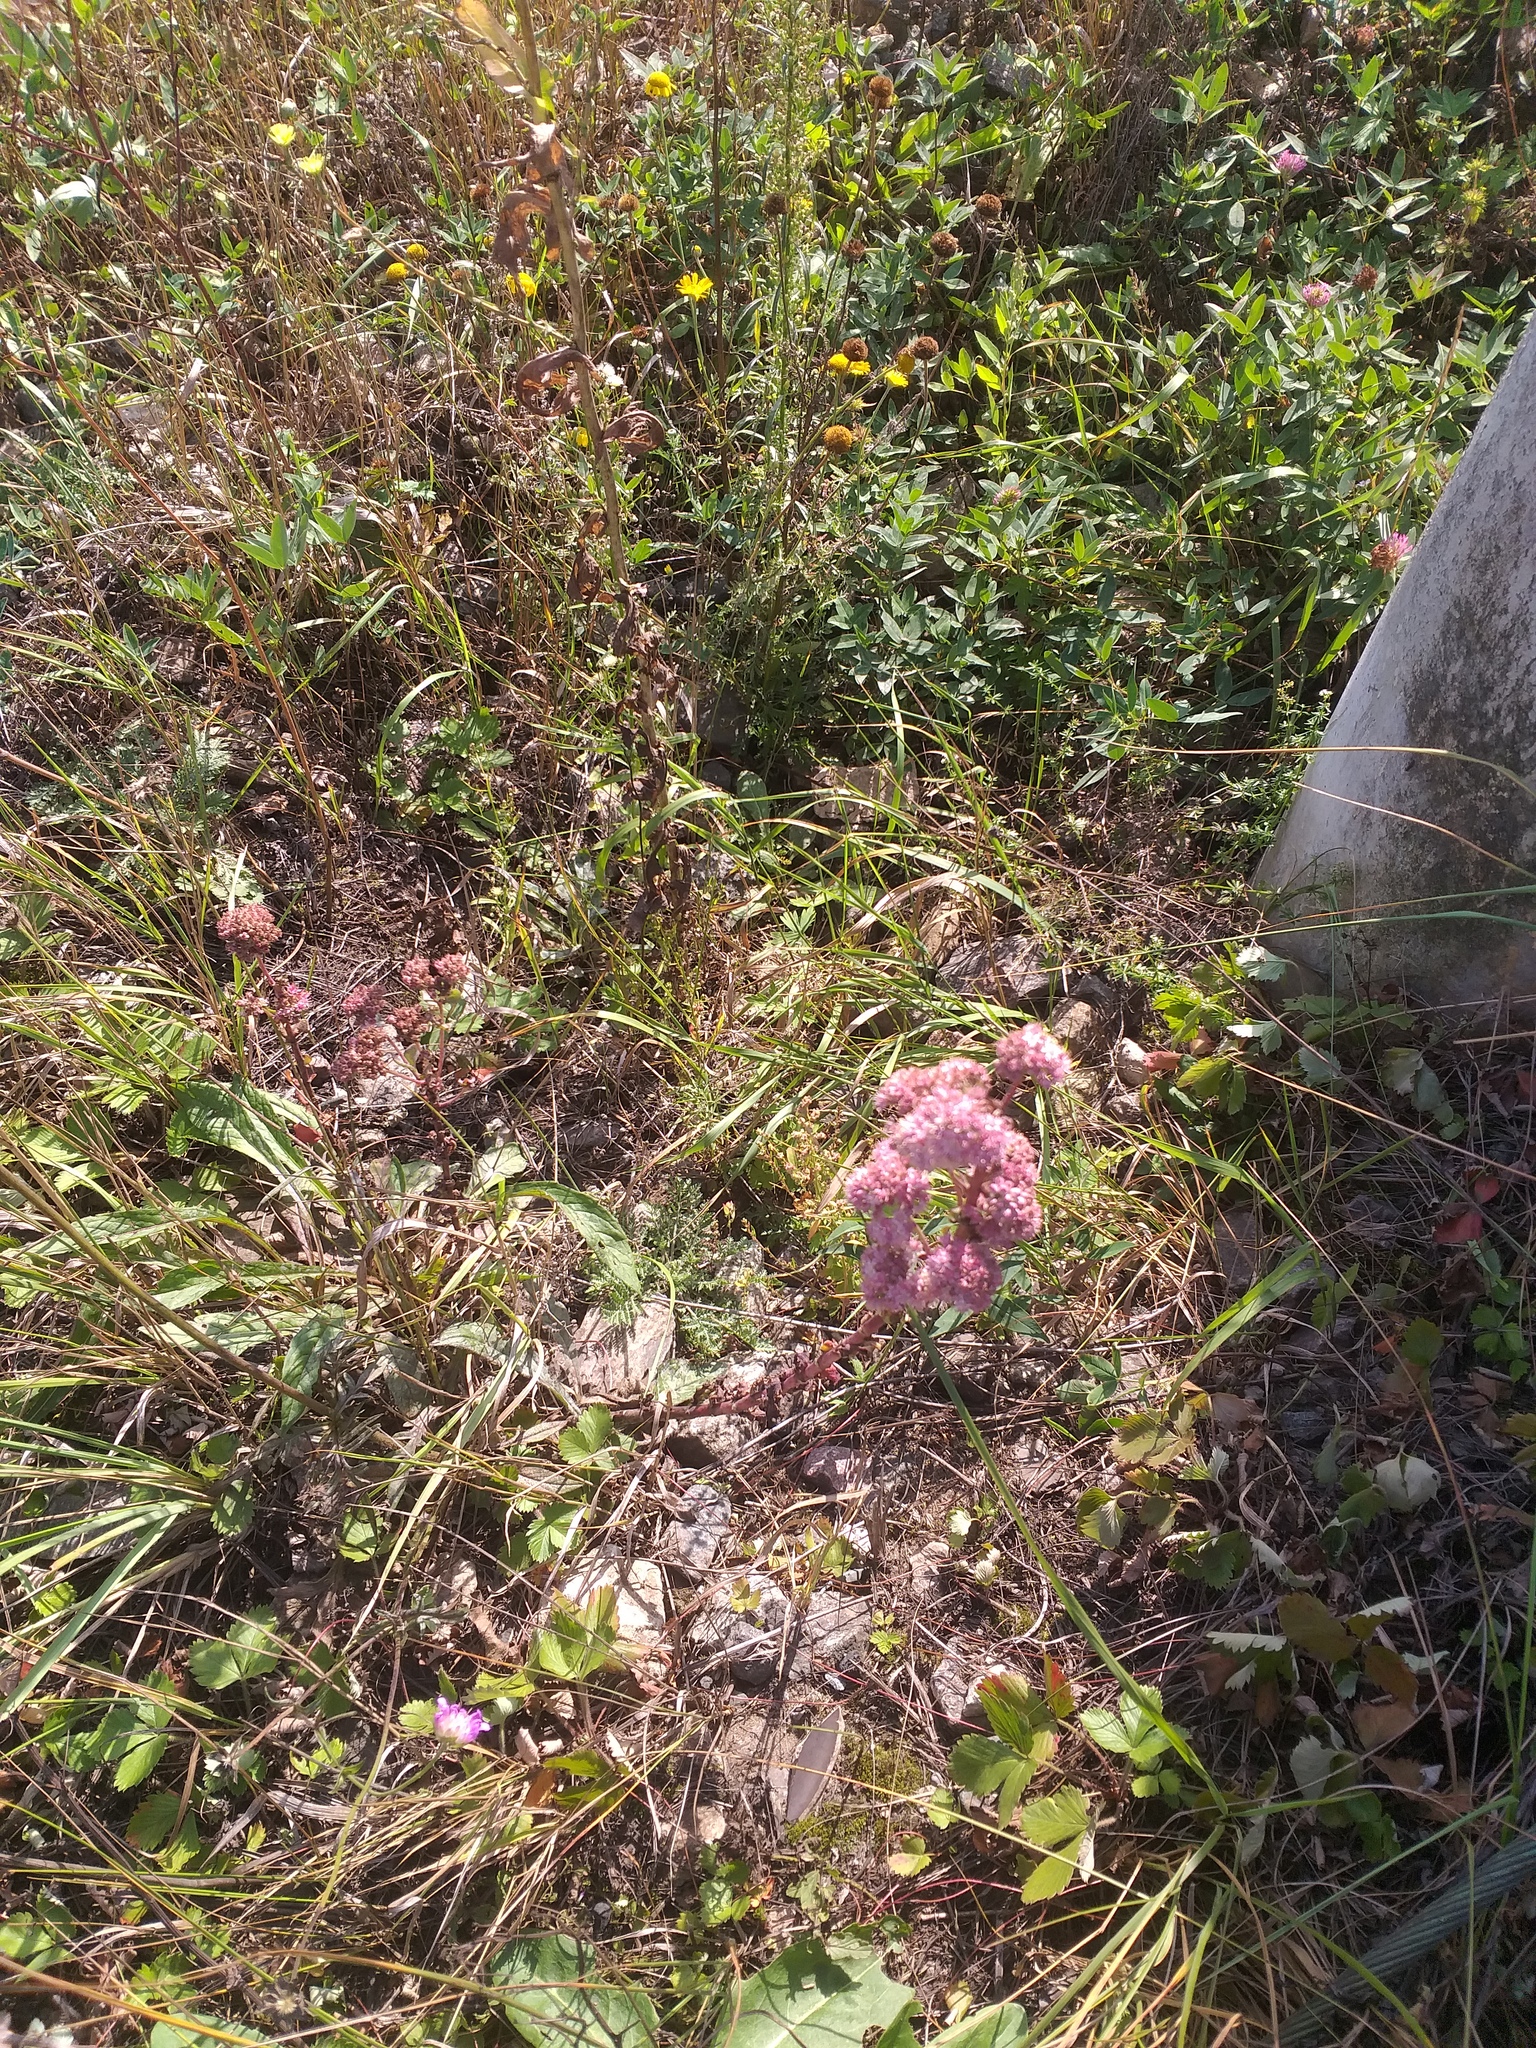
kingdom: Plantae
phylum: Tracheophyta
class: Magnoliopsida
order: Saxifragales
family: Crassulaceae
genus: Hylotelephium
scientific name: Hylotelephium maximum
